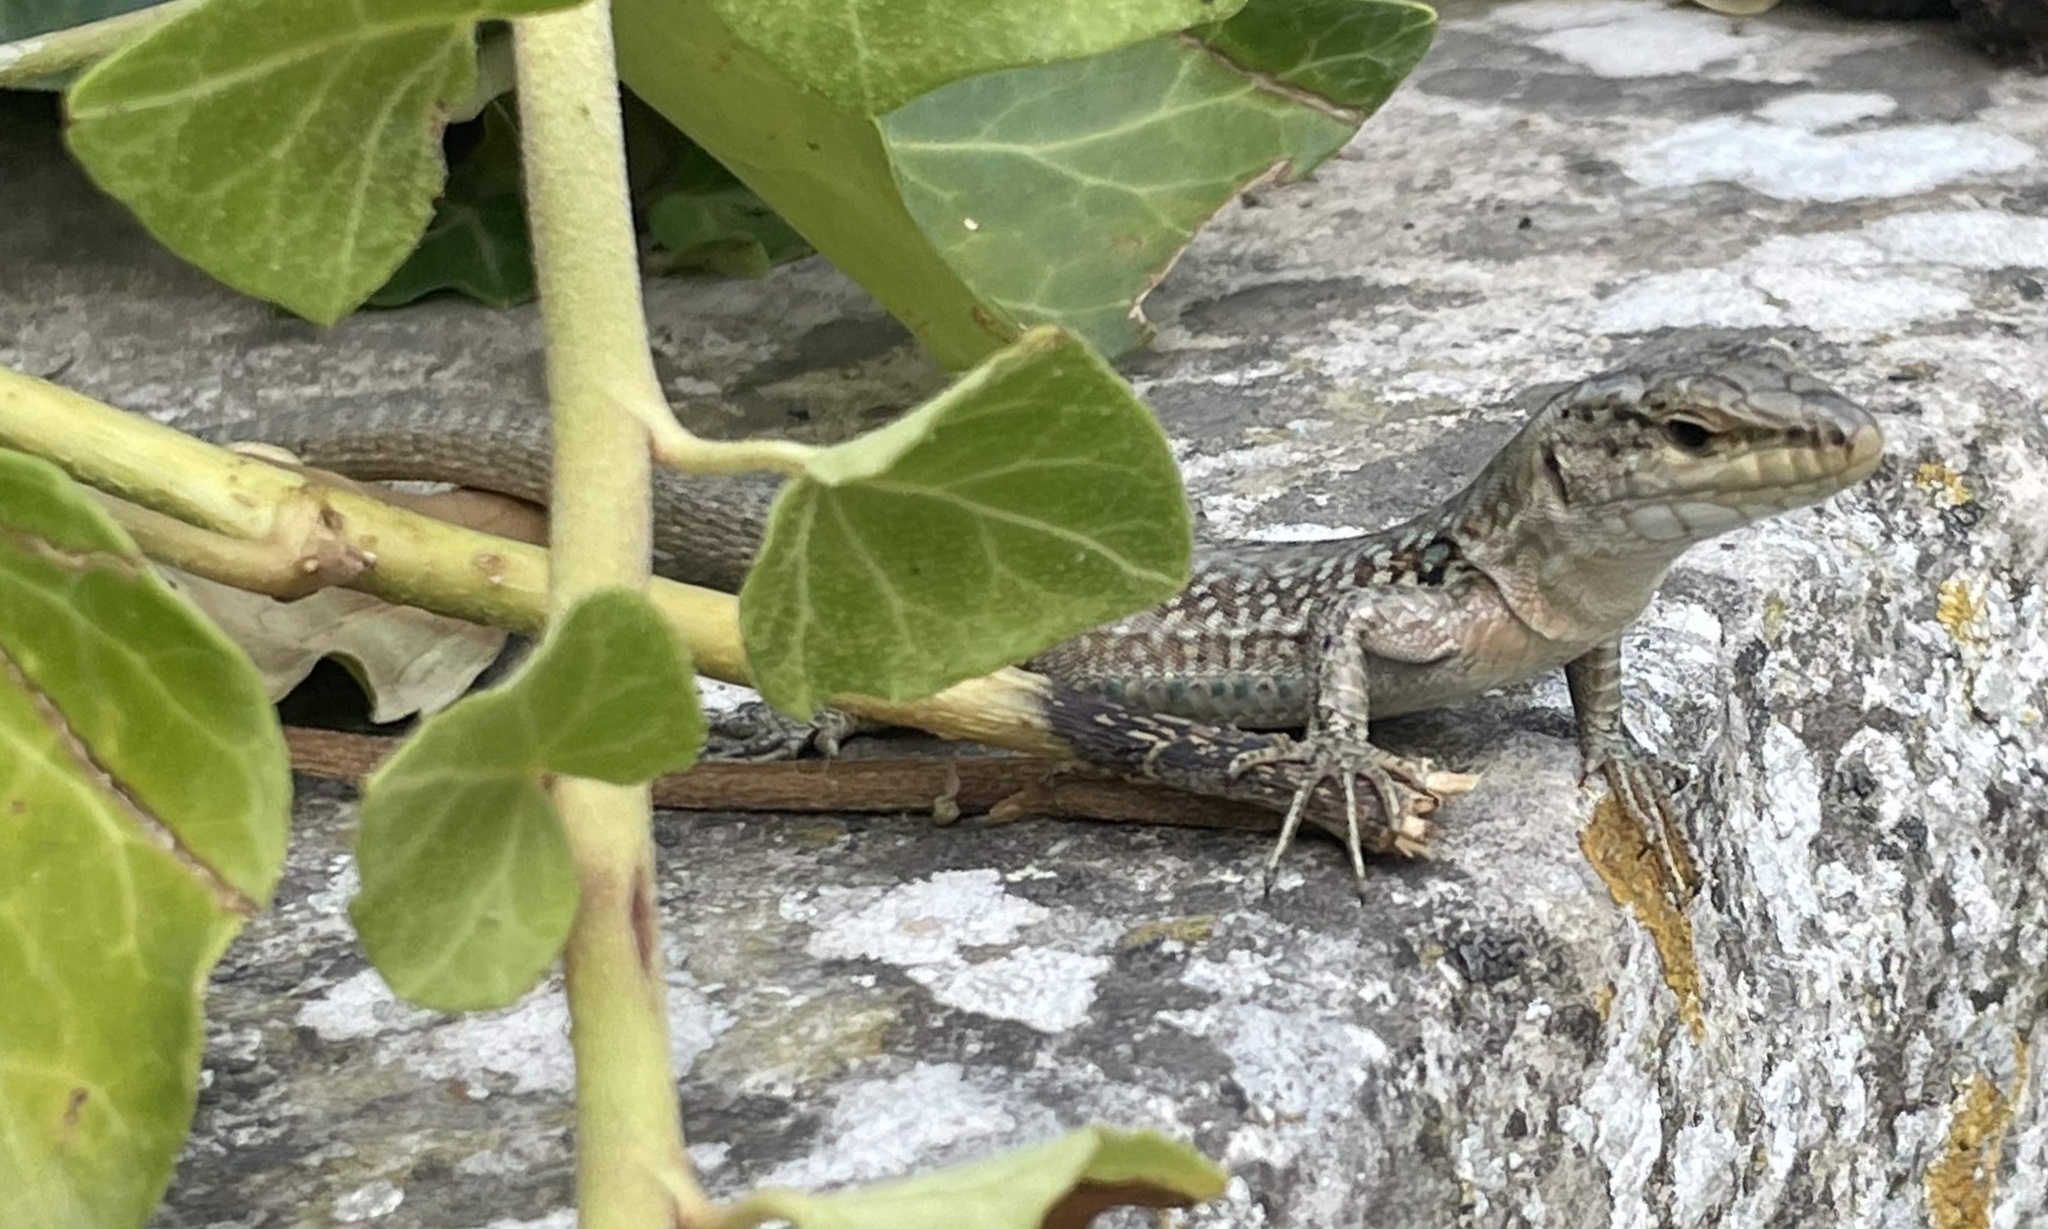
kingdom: Animalia
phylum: Chordata
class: Squamata
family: Lacertidae
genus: Podarcis
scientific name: Podarcis siculus
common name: Italian wall lizard
